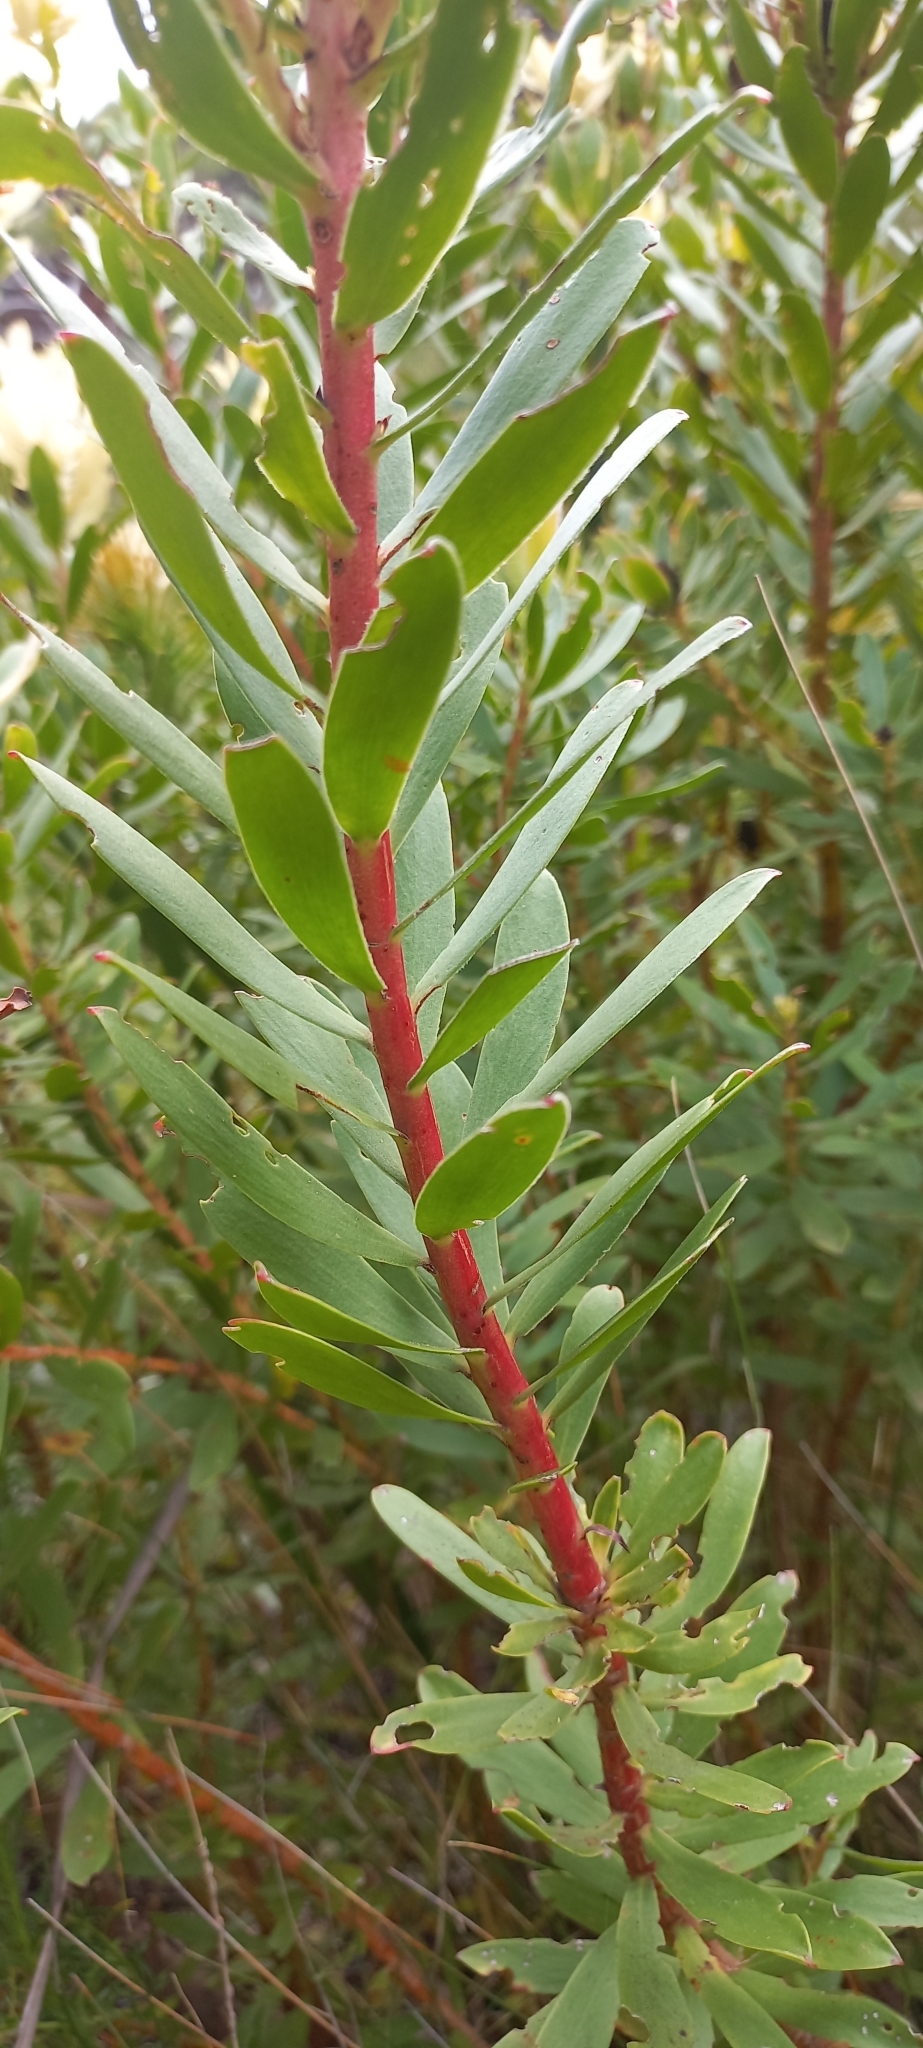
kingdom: Plantae
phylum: Tracheophyta
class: Magnoliopsida
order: Proteales
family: Proteaceae
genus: Leucadendron
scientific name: Leucadendron spissifolium
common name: Spear-leaf conebush
